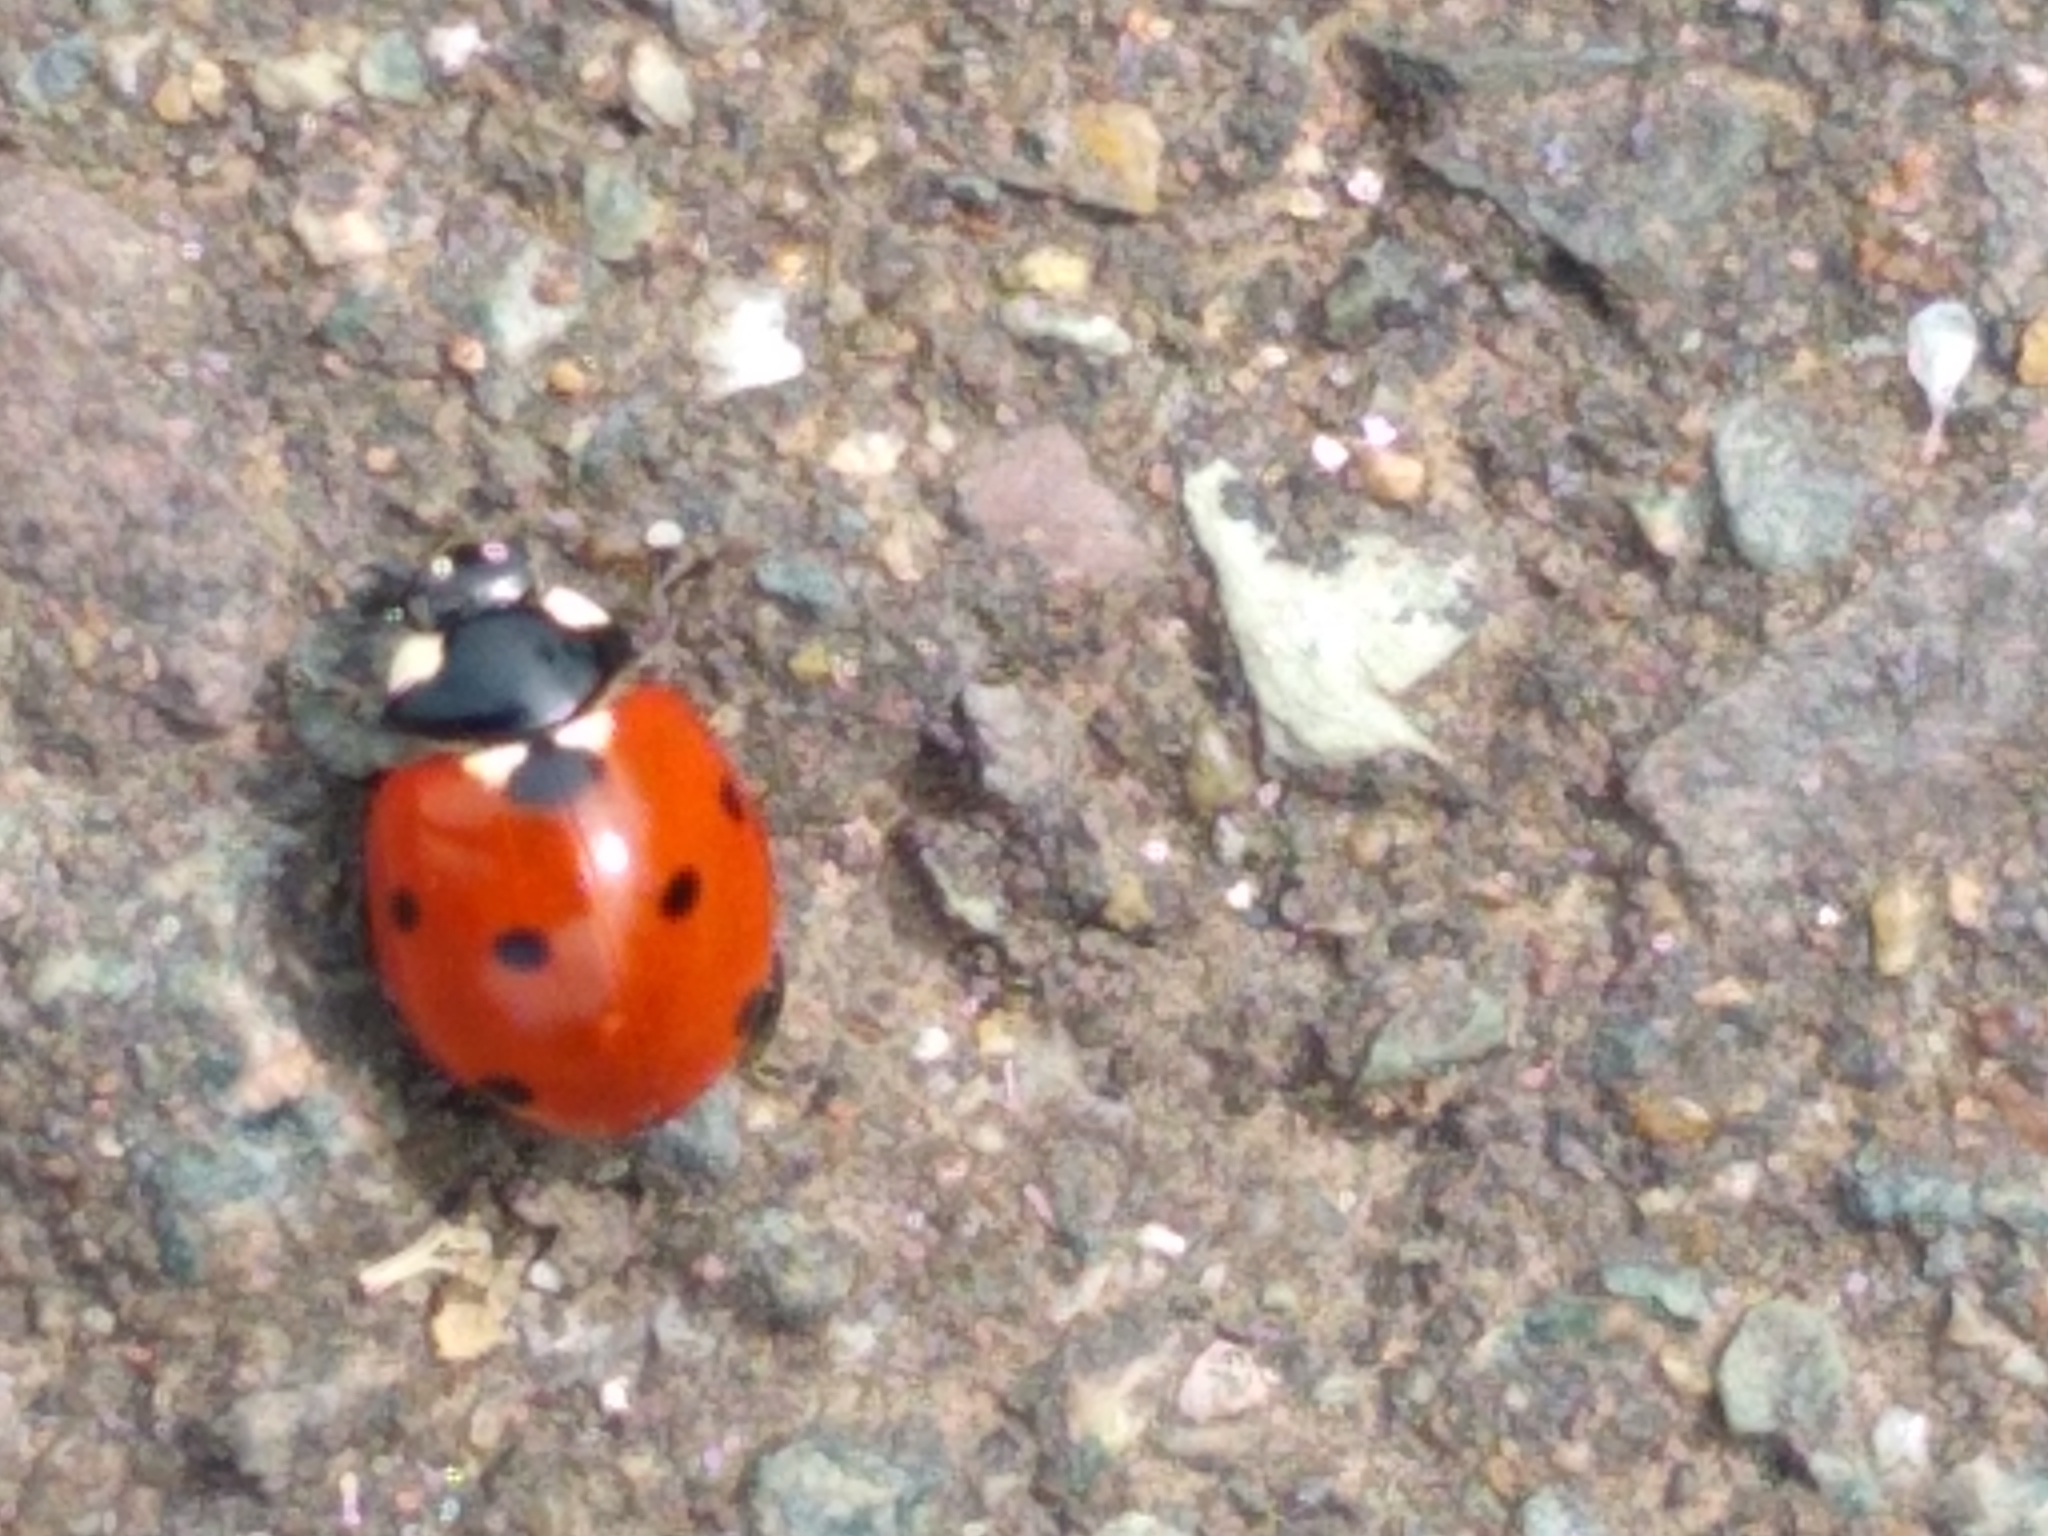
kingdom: Animalia
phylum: Arthropoda
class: Insecta
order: Coleoptera
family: Coccinellidae
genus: Coccinella
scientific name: Coccinella septempunctata
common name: Sevenspotted lady beetle
